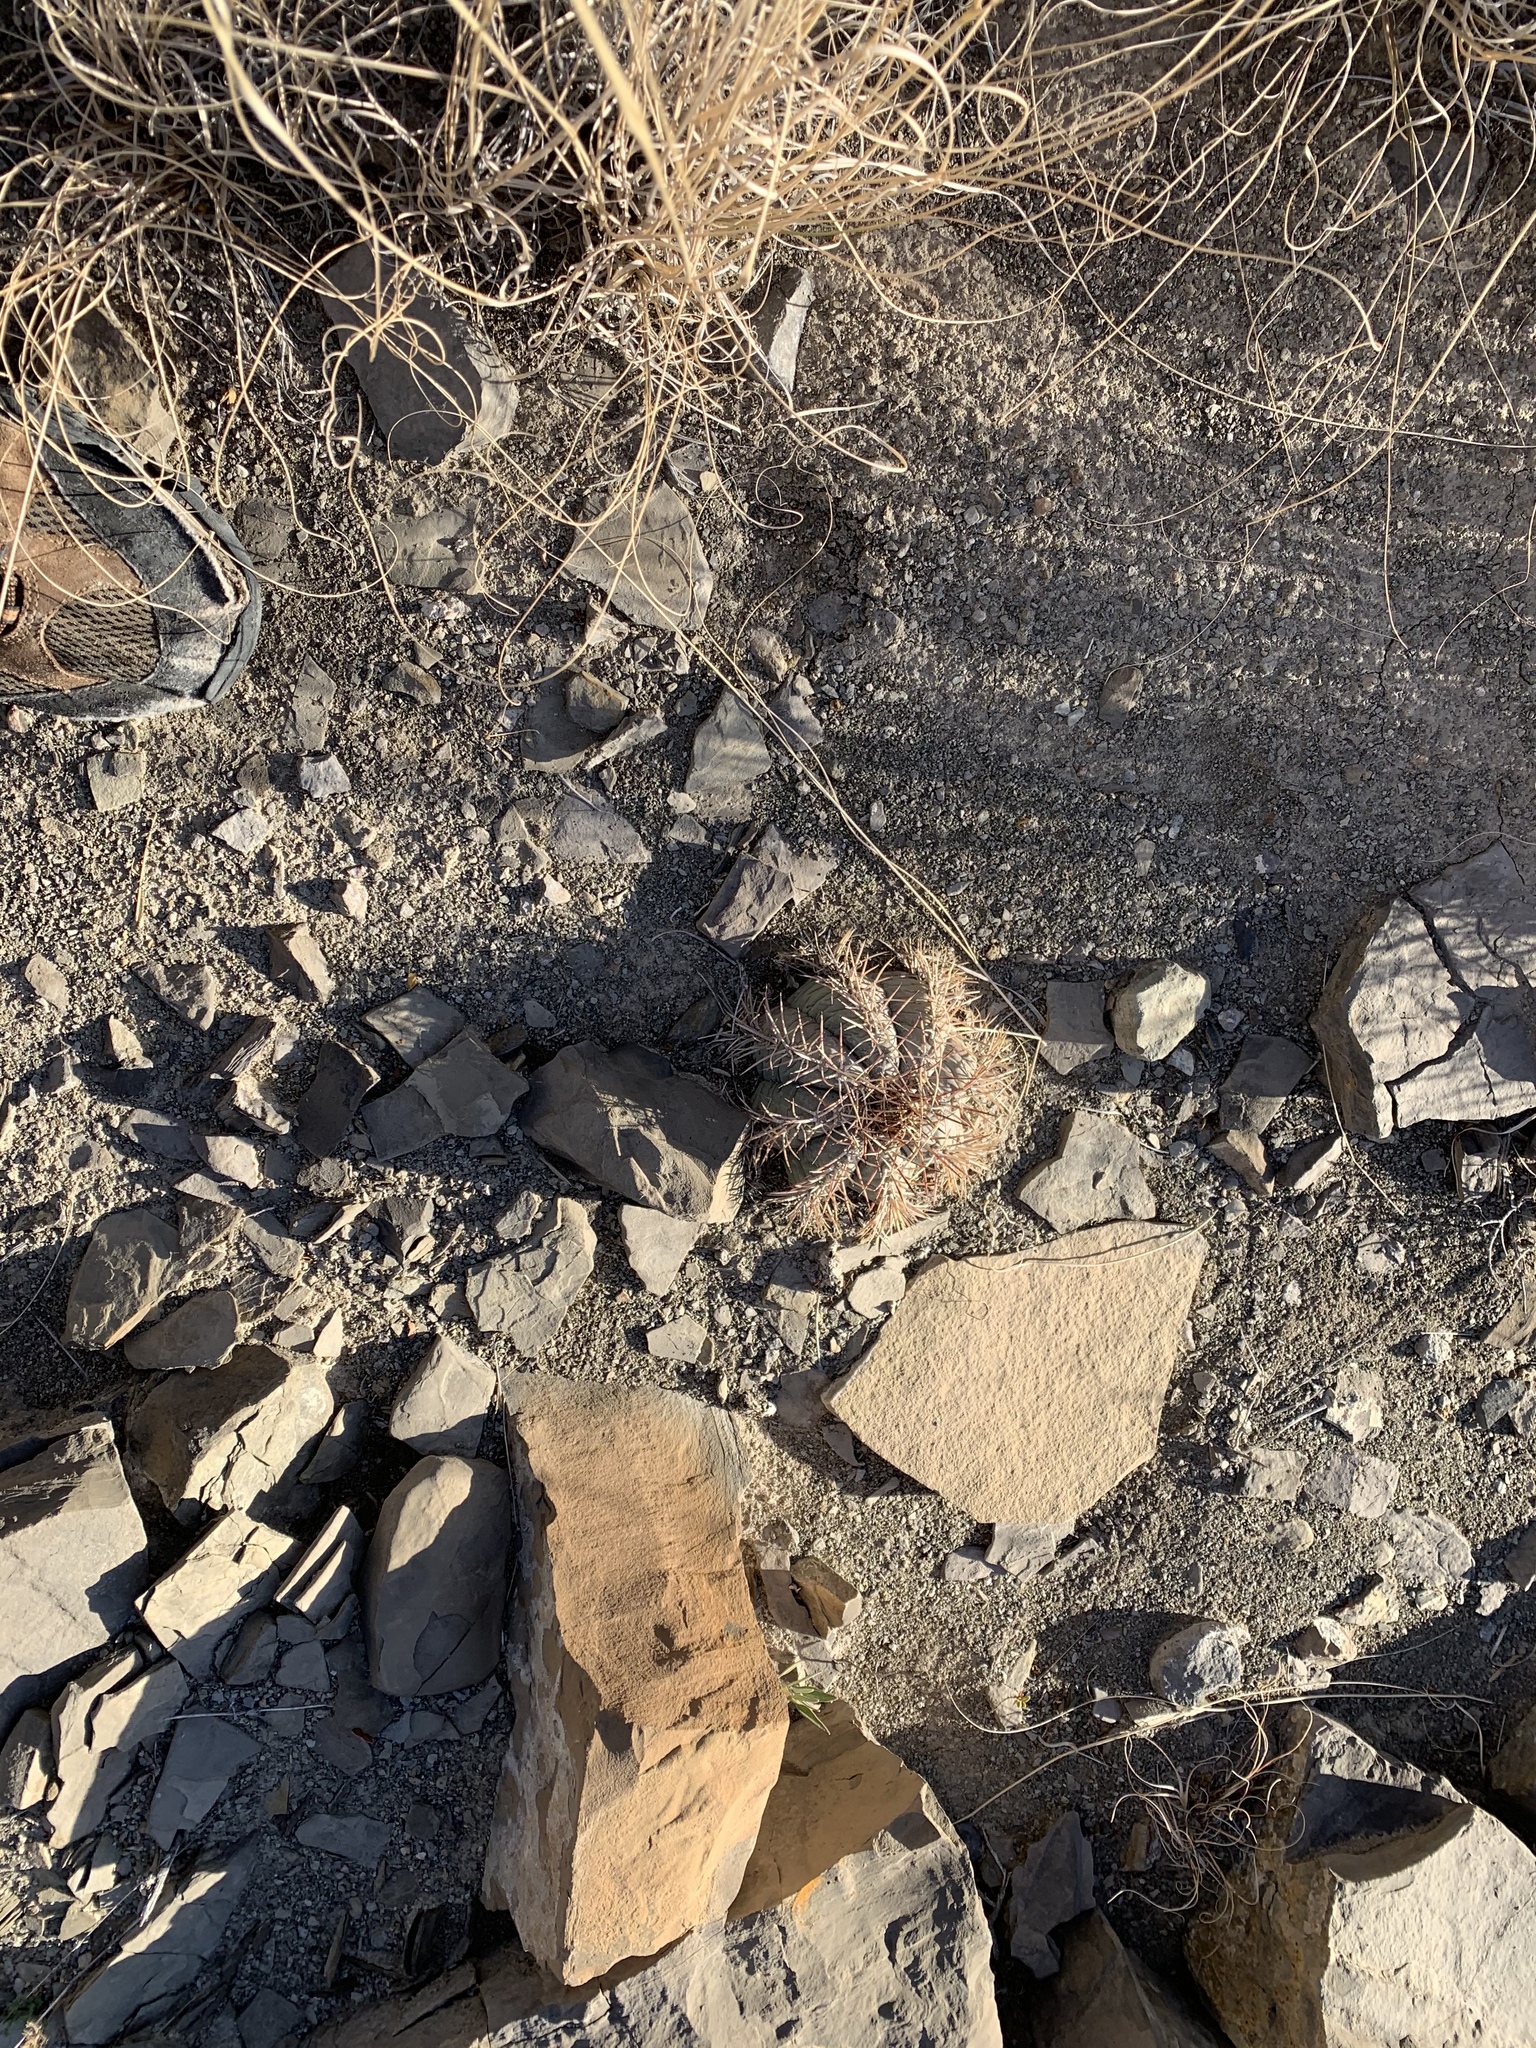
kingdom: Plantae
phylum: Tracheophyta
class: Magnoliopsida
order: Caryophyllales
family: Cactaceae
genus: Echinocactus
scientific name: Echinocactus horizonthalonius
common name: Devilshead
